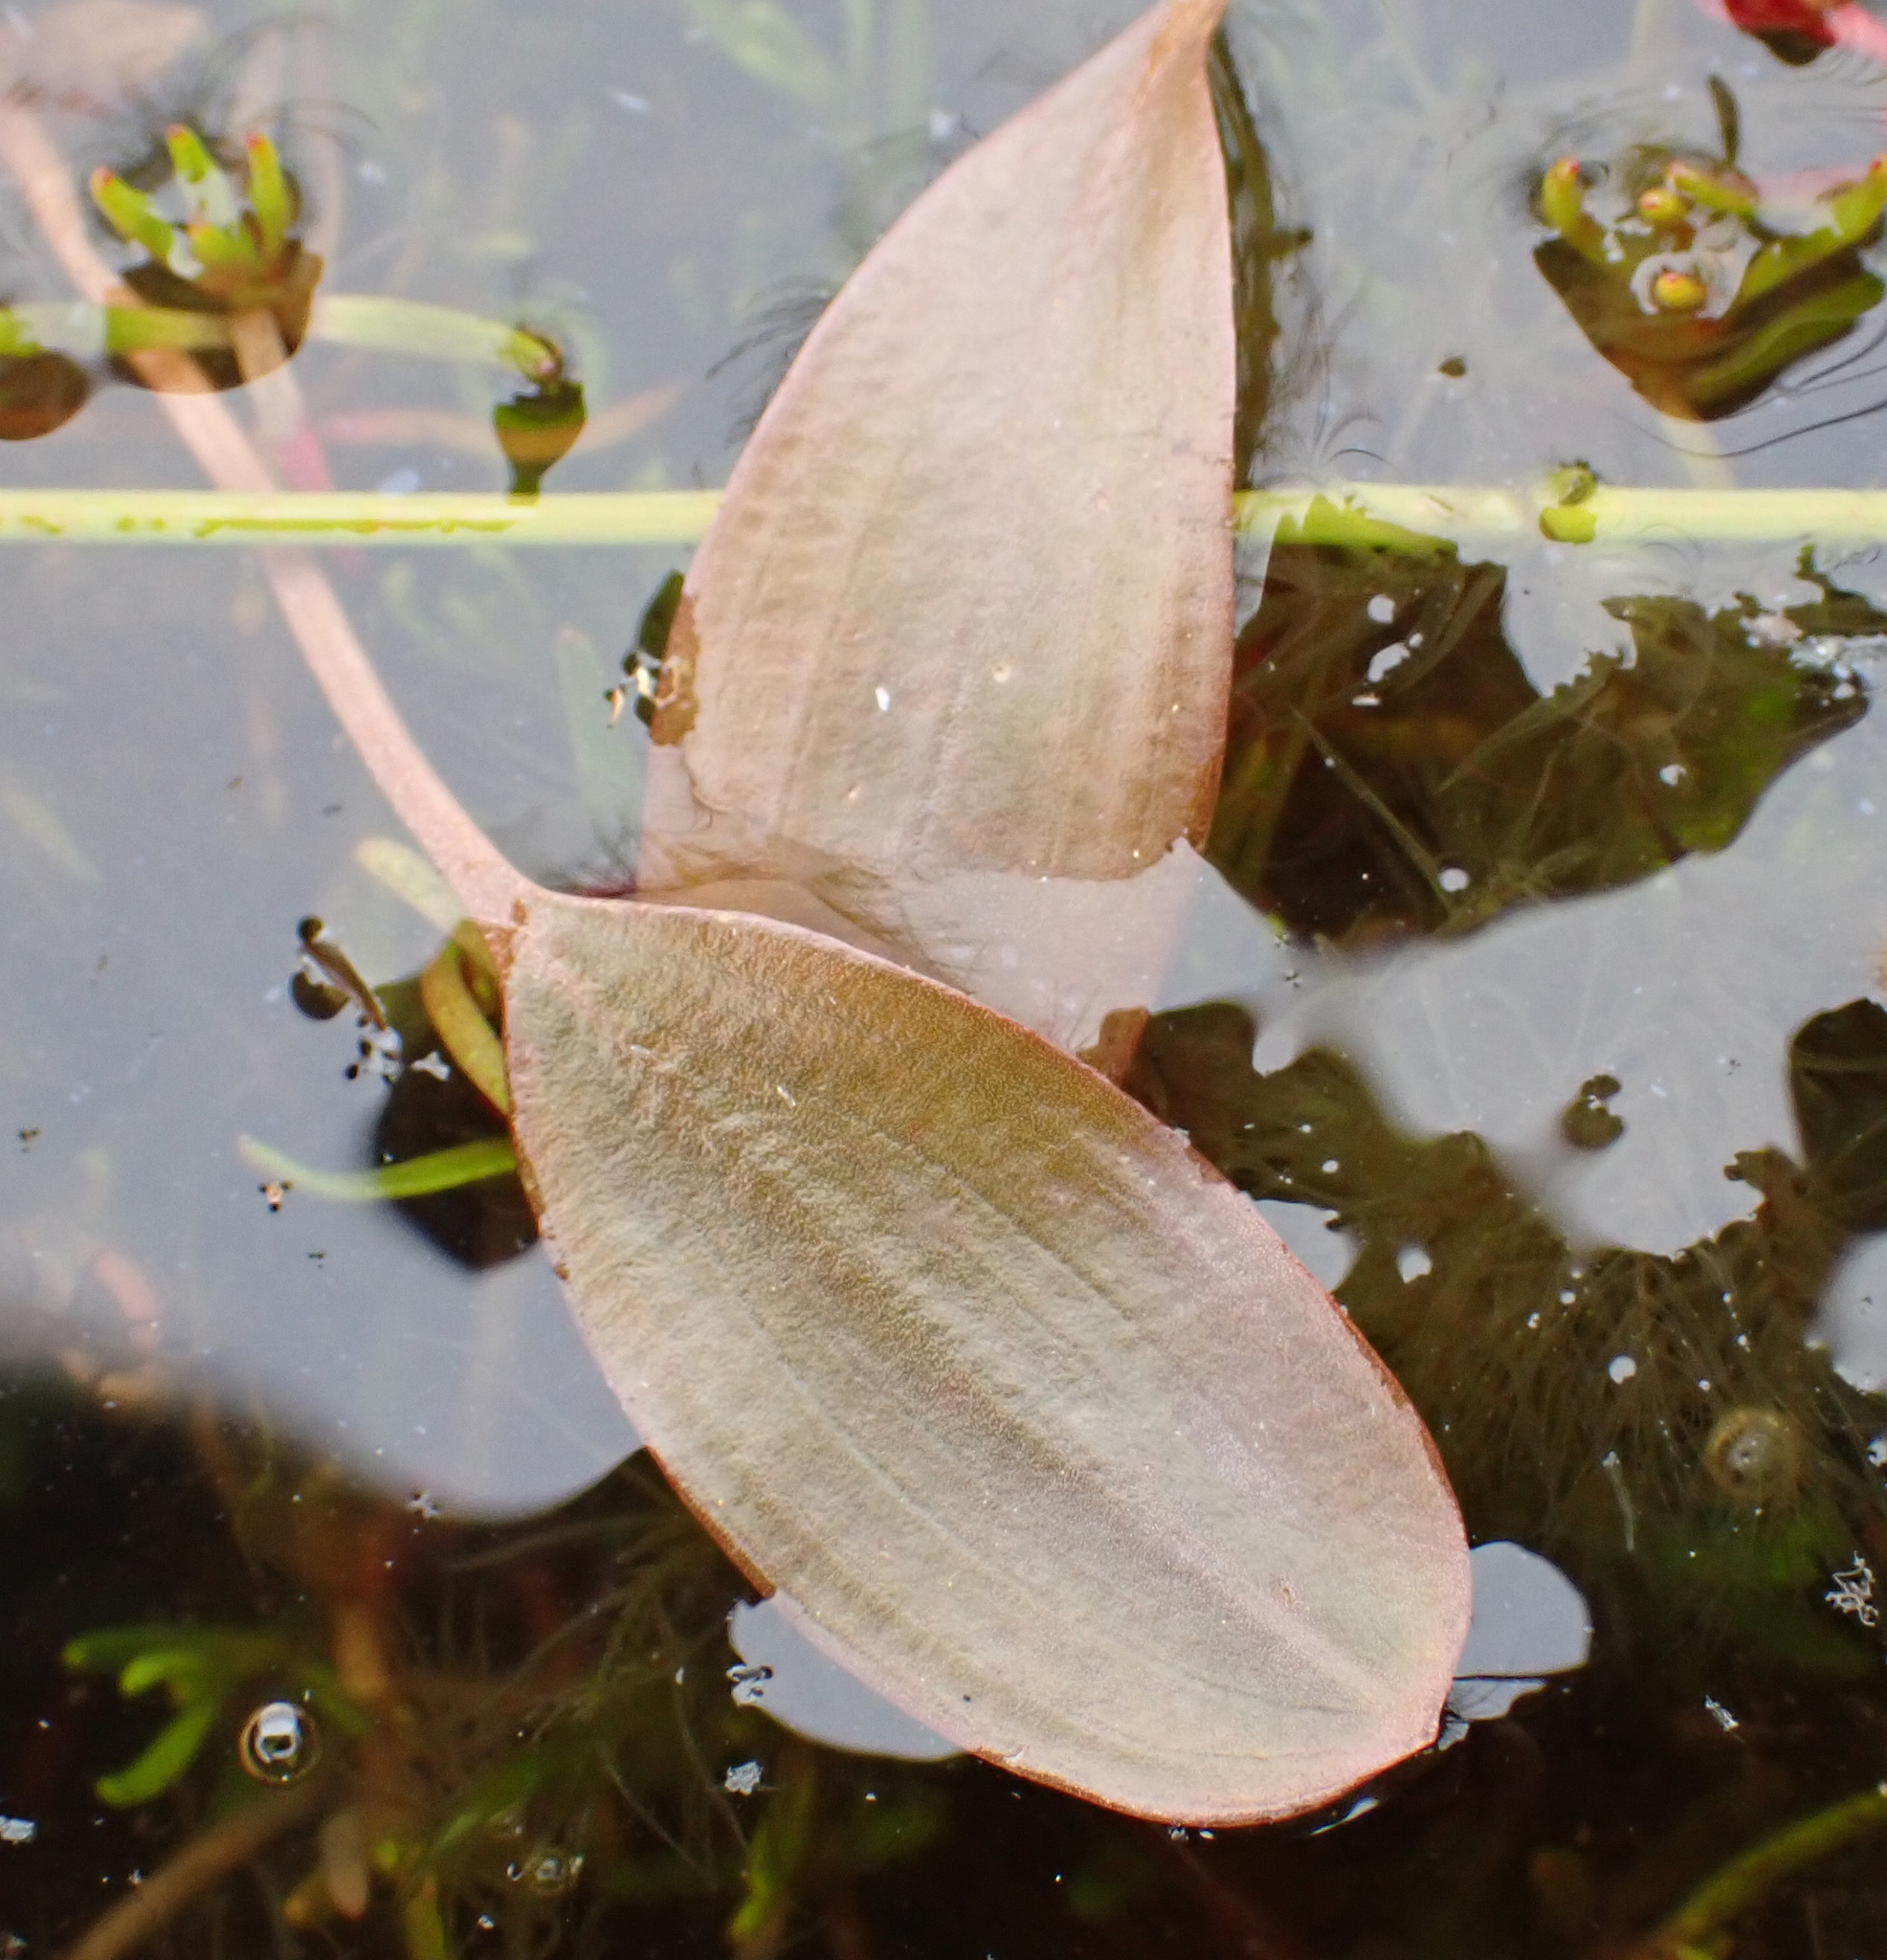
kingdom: Plantae
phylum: Tracheophyta
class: Liliopsida
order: Alismatales
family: Potamogetonaceae
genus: Potamogeton
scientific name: Potamogeton cheesemanii
